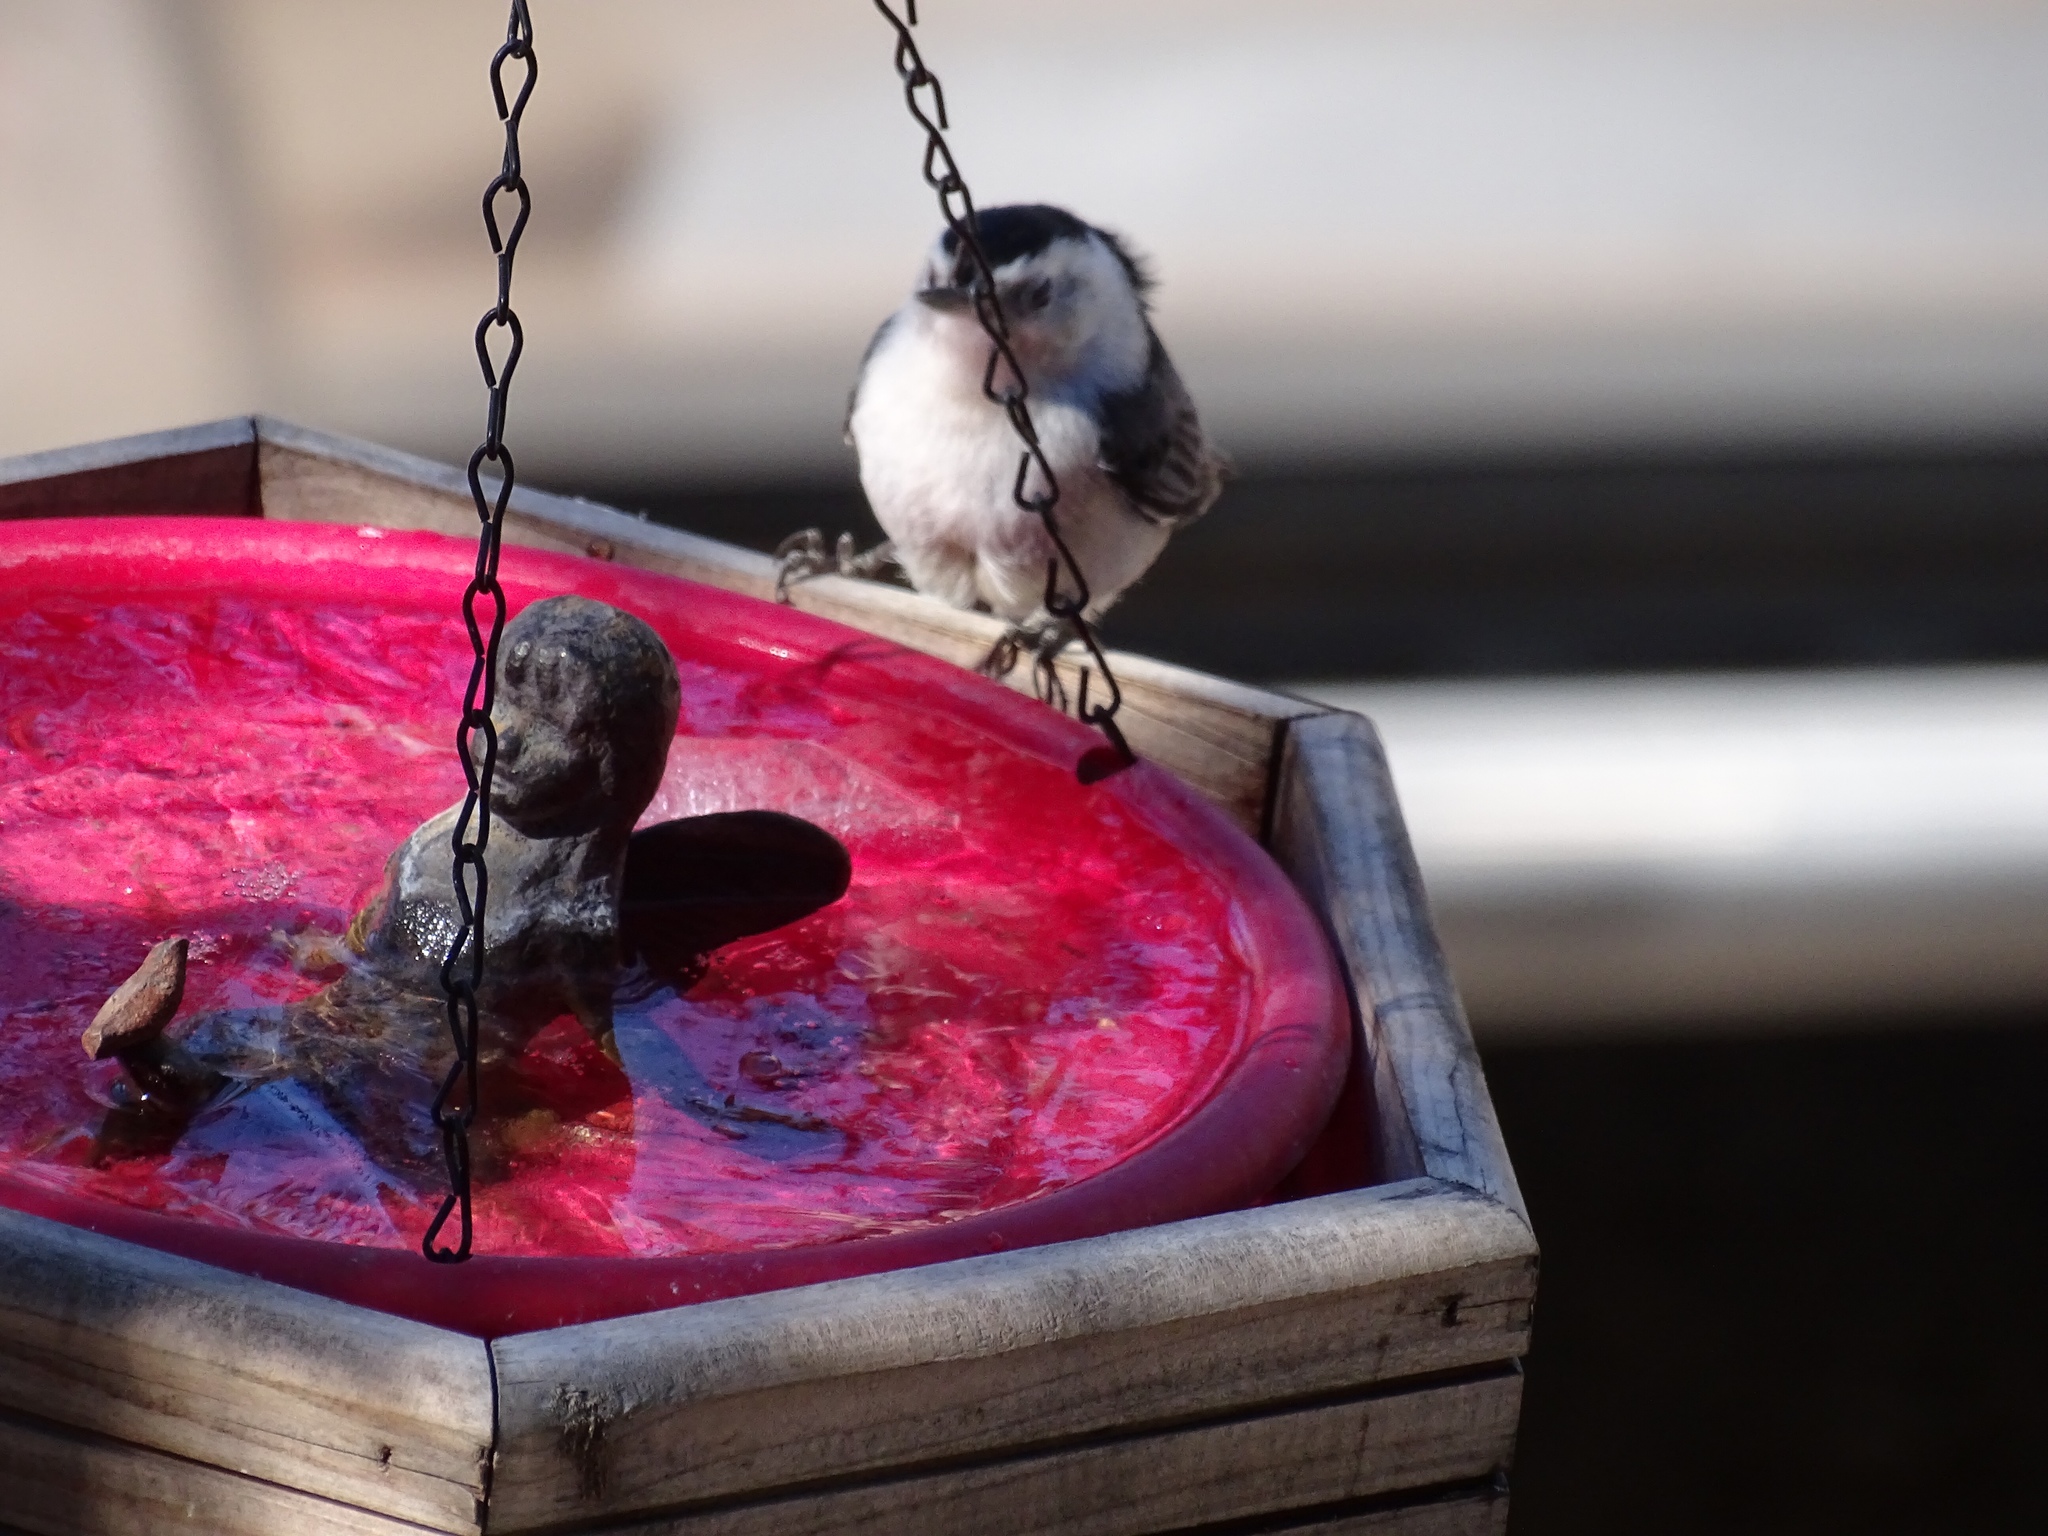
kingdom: Animalia
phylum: Chordata
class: Aves
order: Passeriformes
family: Sittidae
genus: Sitta
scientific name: Sitta carolinensis
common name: White-breasted nuthatch
